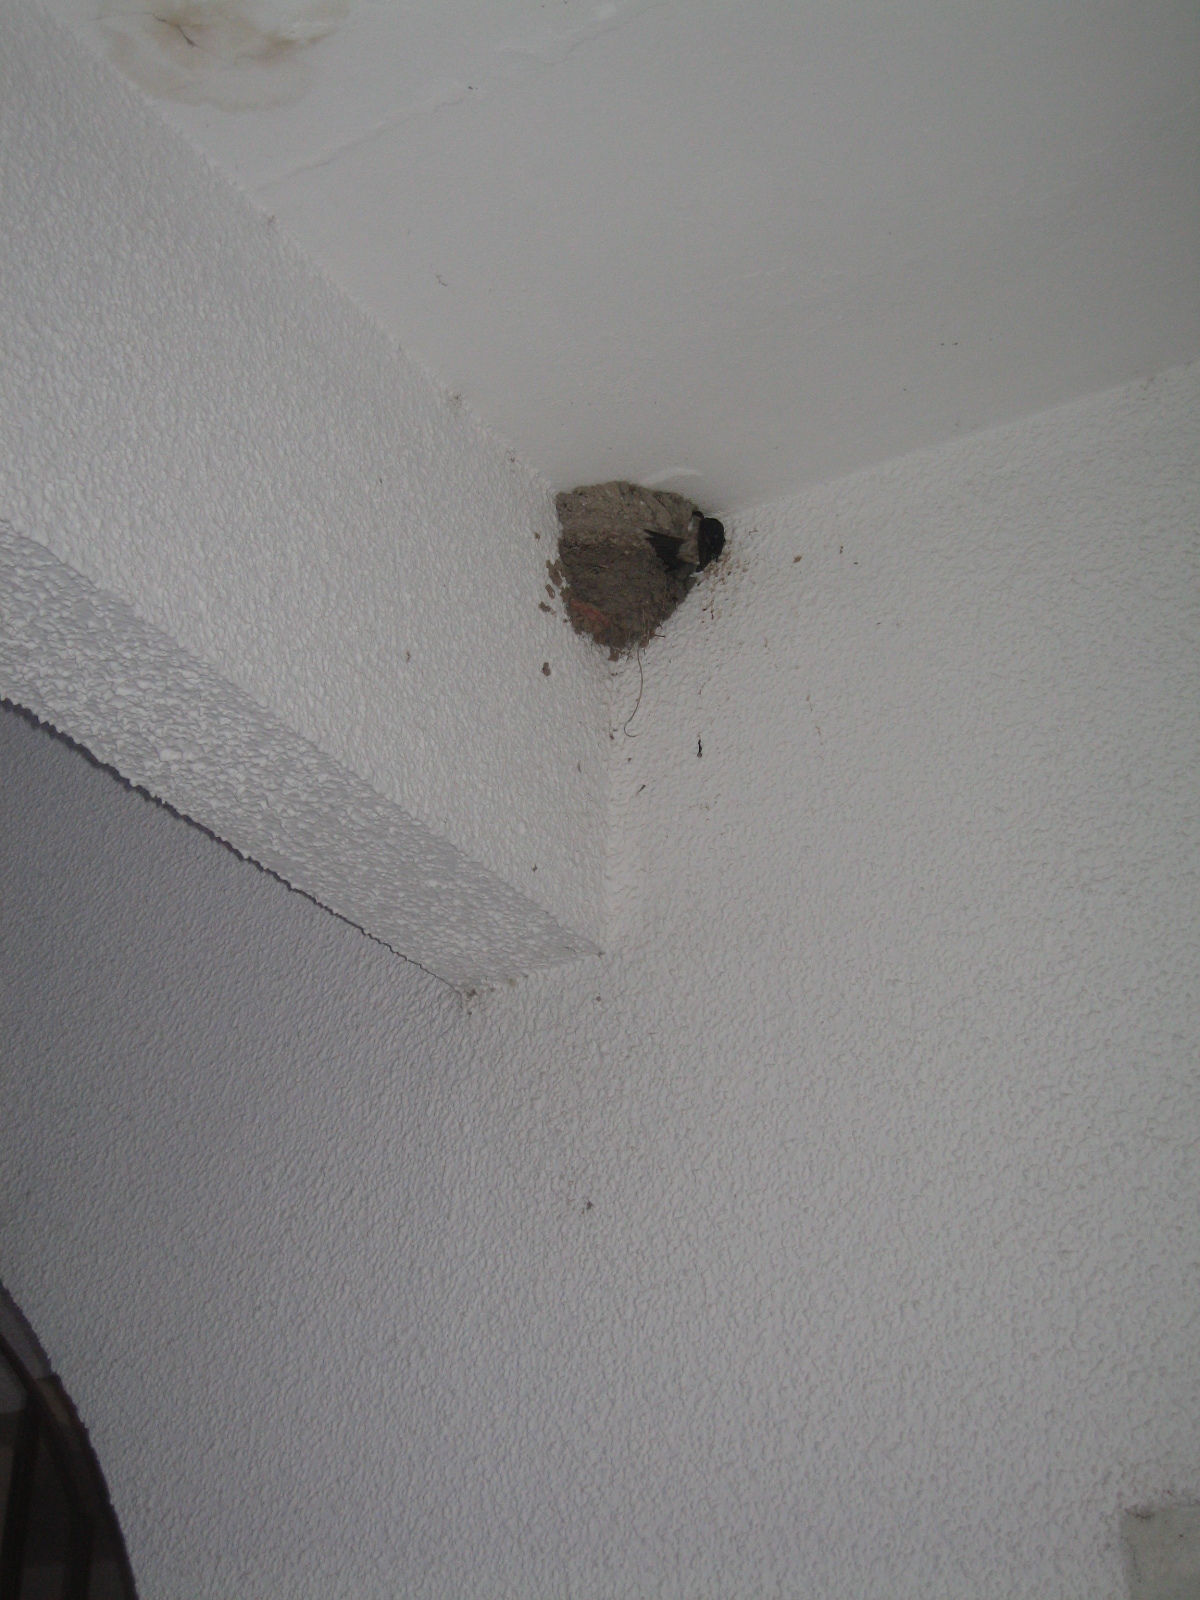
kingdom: Animalia
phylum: Chordata
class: Aves
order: Passeriformes
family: Hirundinidae
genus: Delichon
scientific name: Delichon urbicum
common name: Common house martin
